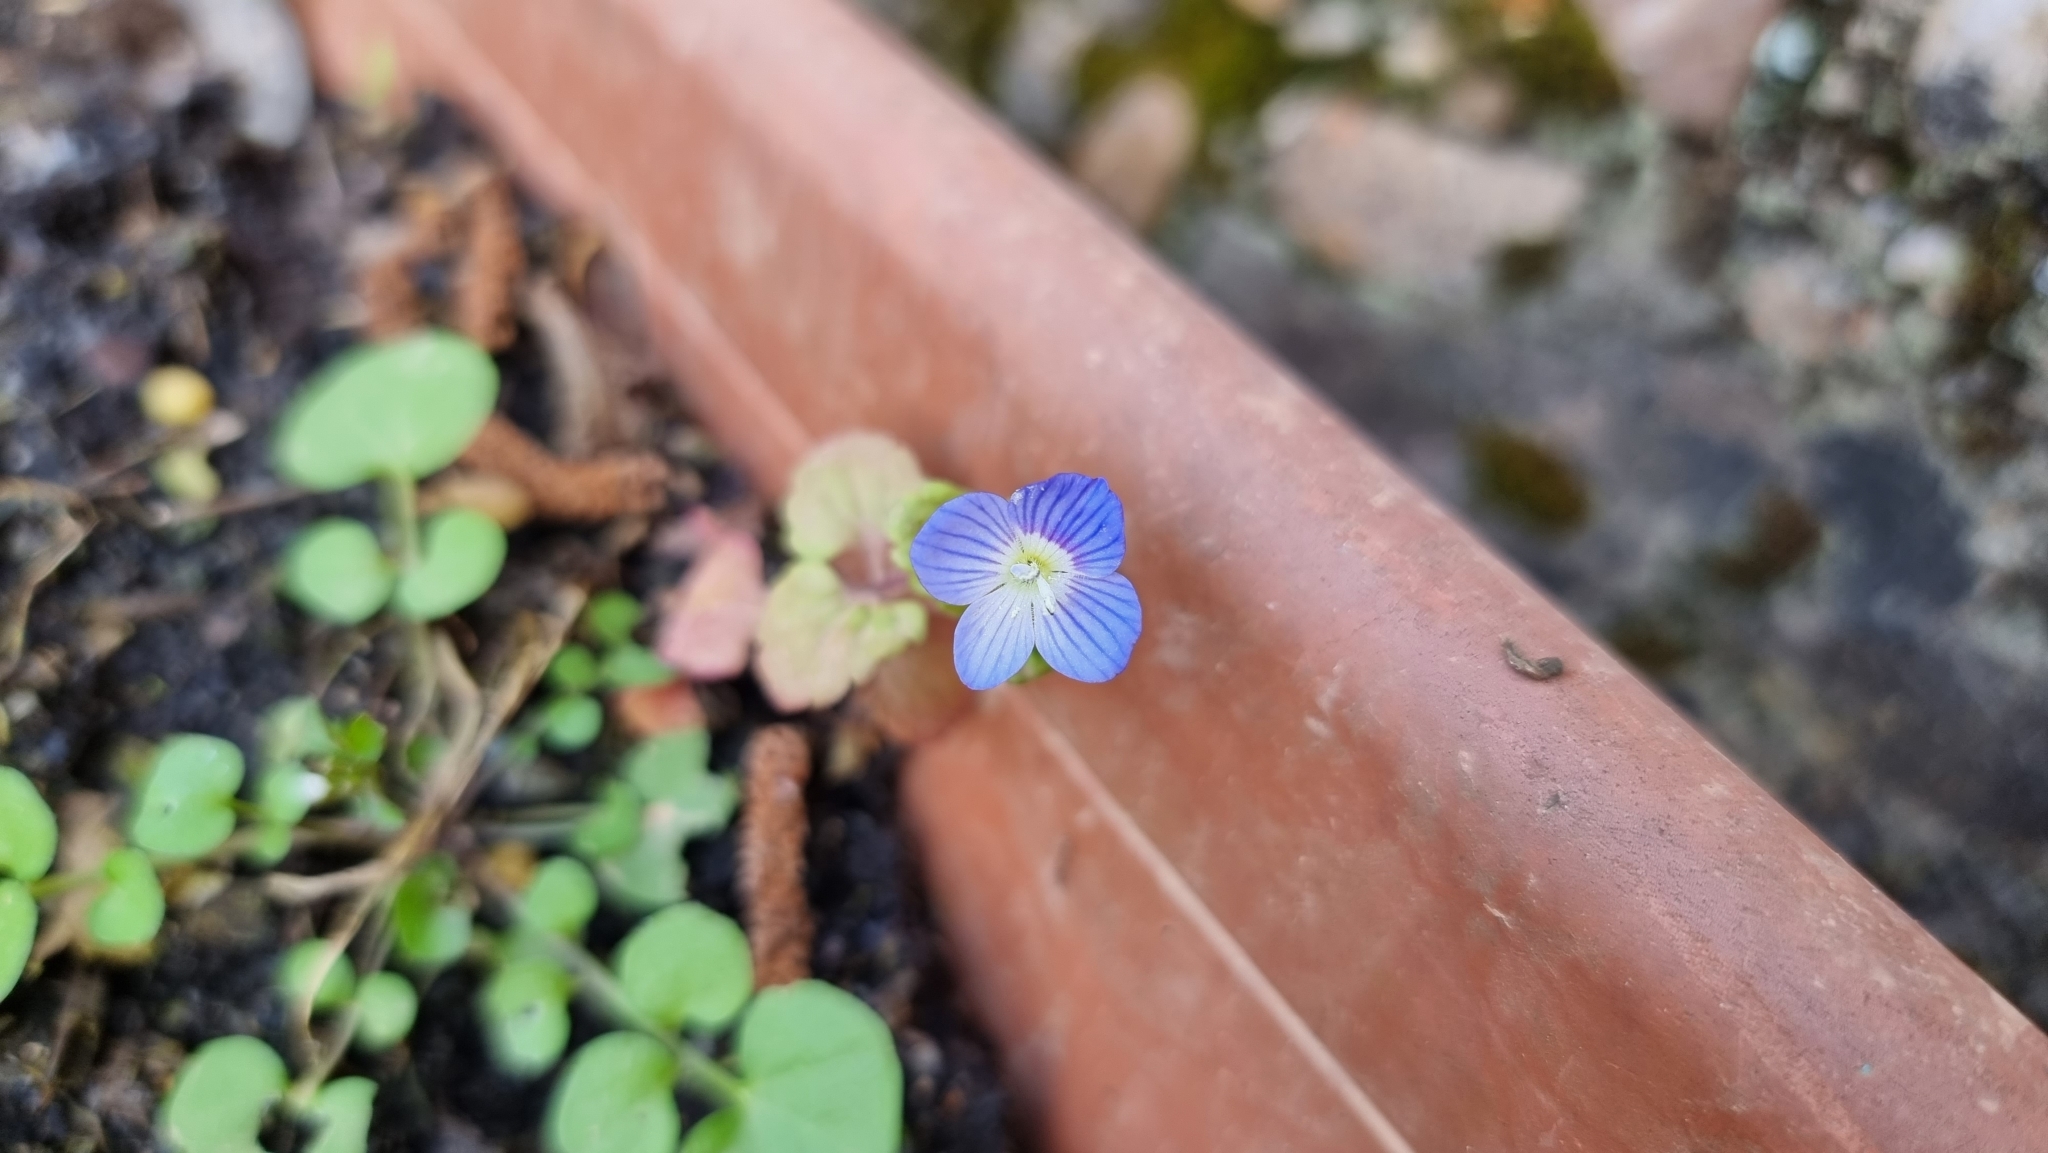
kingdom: Plantae
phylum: Tracheophyta
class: Magnoliopsida
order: Lamiales
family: Plantaginaceae
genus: Veronica
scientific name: Veronica persica
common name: Common field-speedwell
